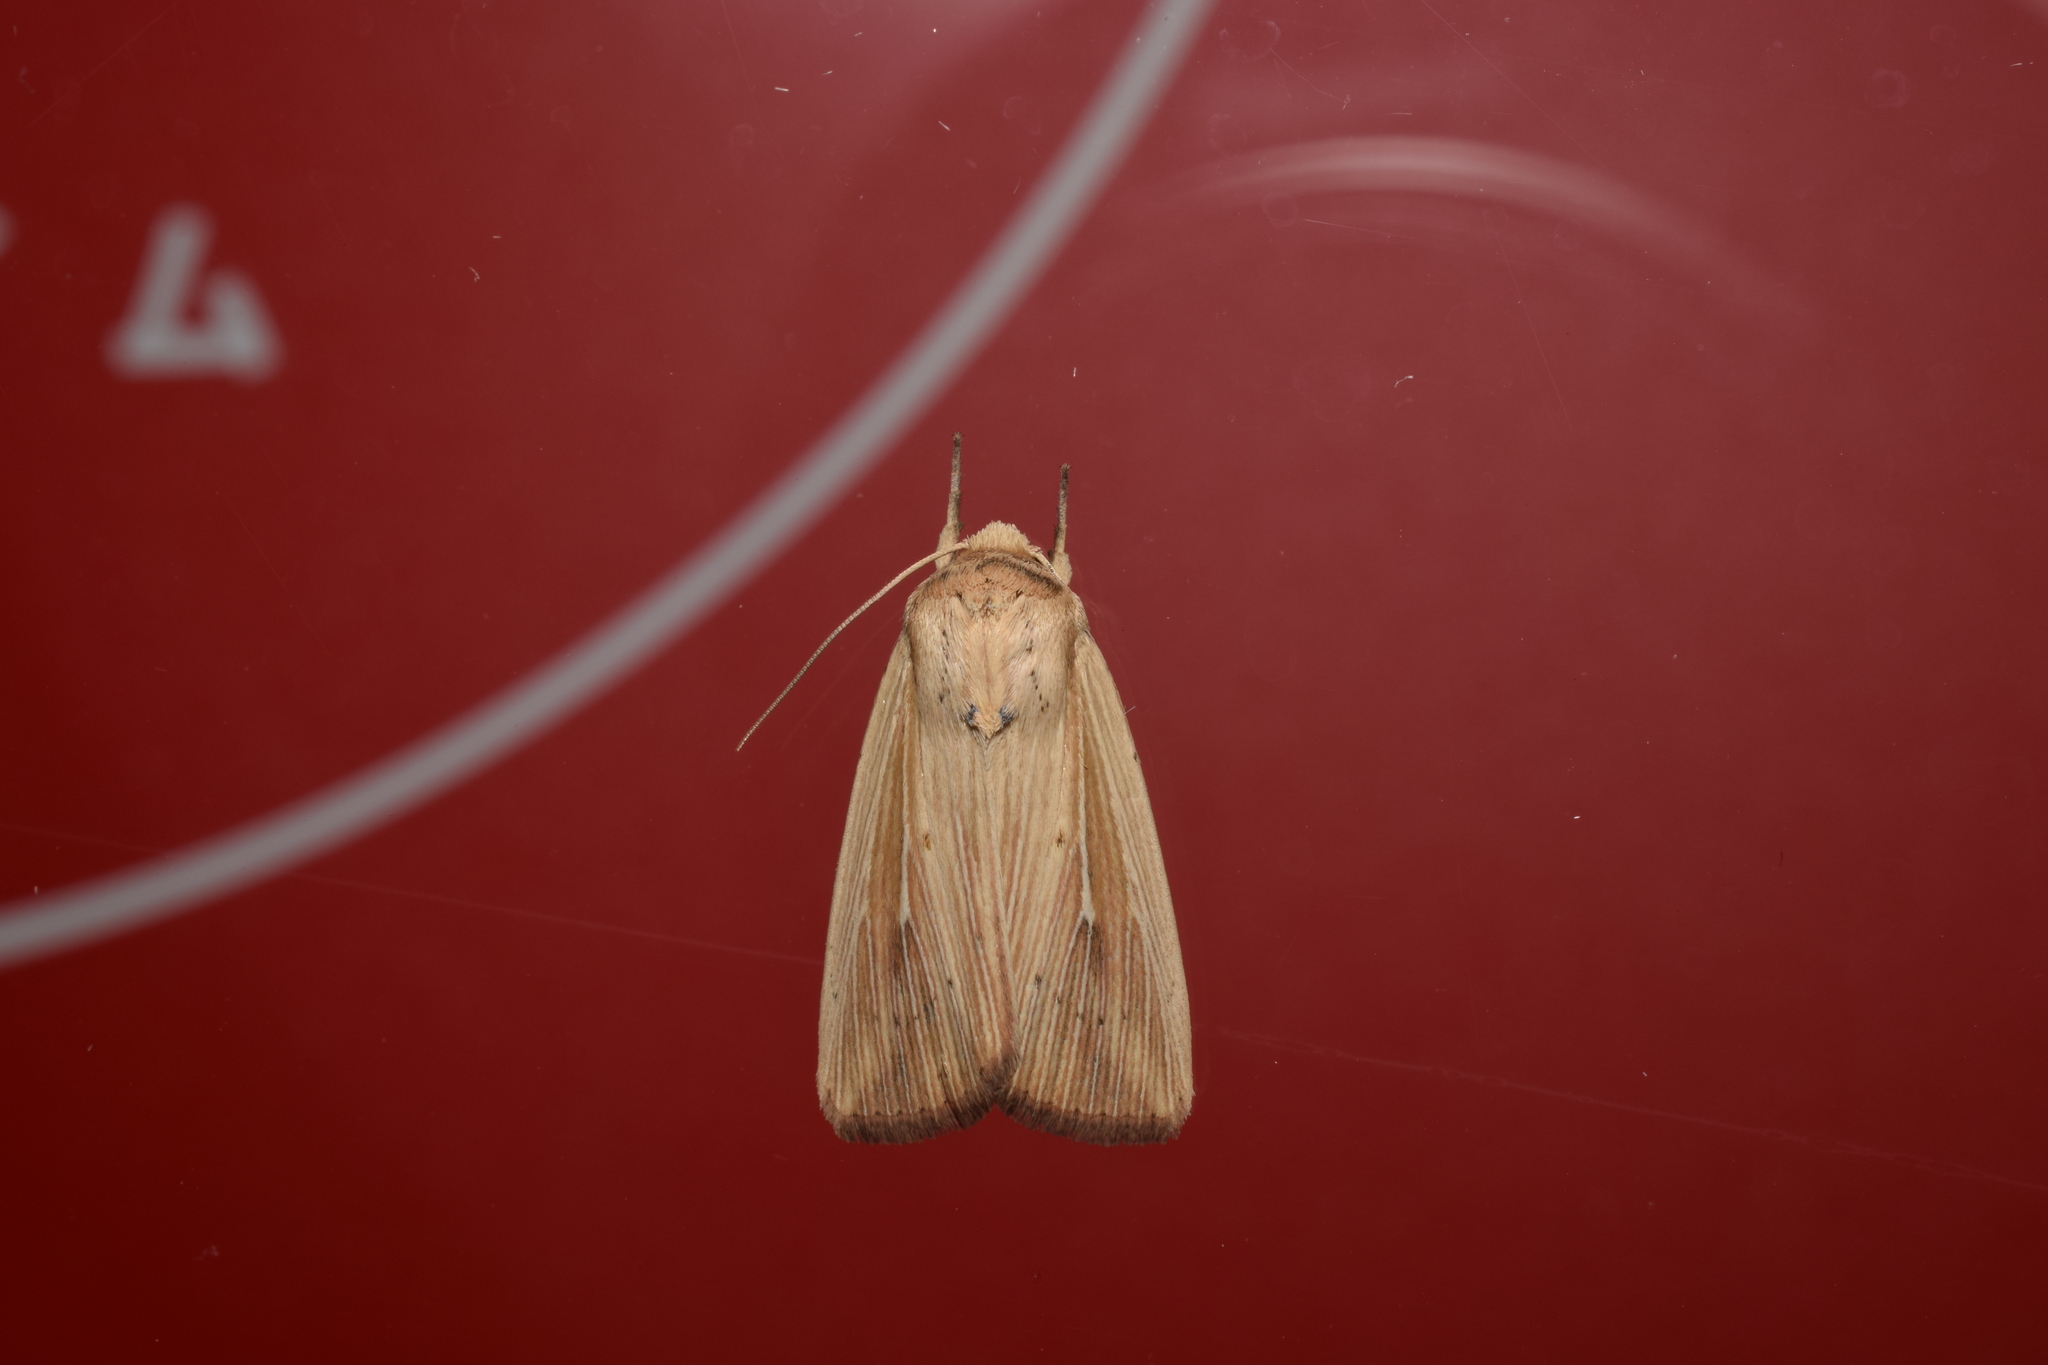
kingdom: Animalia
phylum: Arthropoda
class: Insecta
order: Lepidoptera
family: Noctuidae
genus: Leucania
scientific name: Leucania roseilinea
